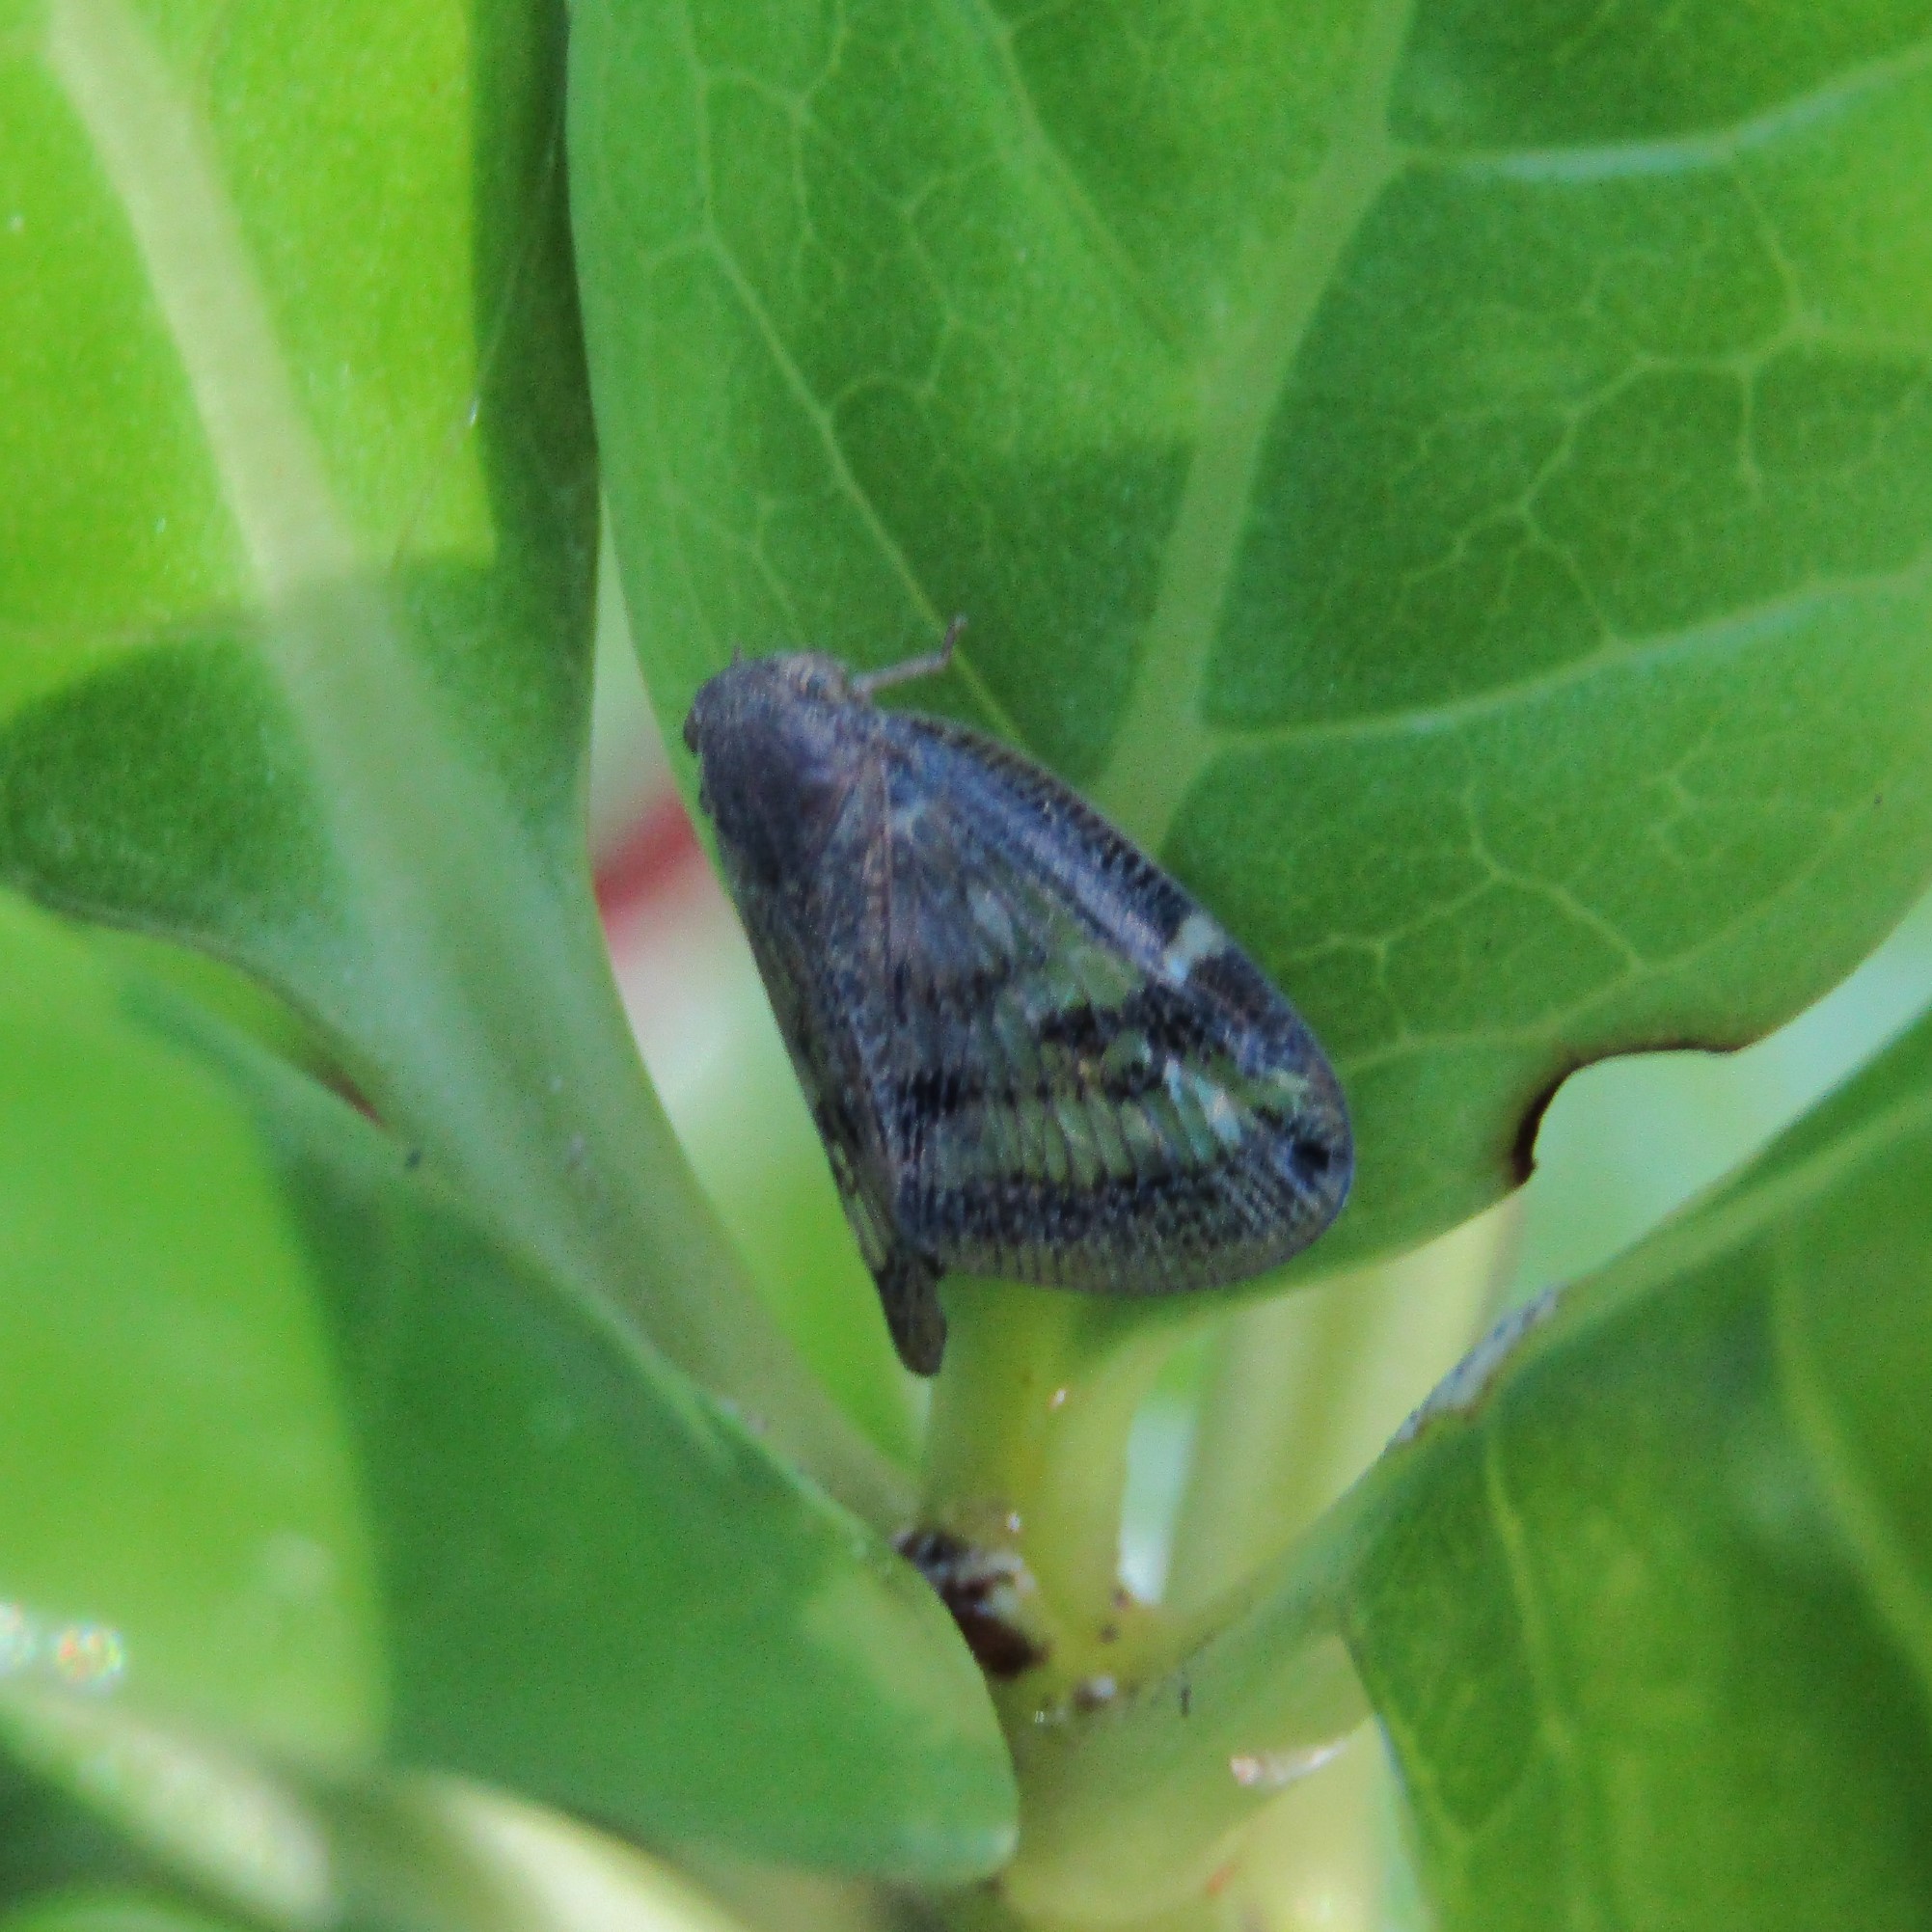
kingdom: Animalia
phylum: Arthropoda
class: Insecta
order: Hemiptera
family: Ricaniidae
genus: Scolypopa
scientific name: Scolypopa australis
